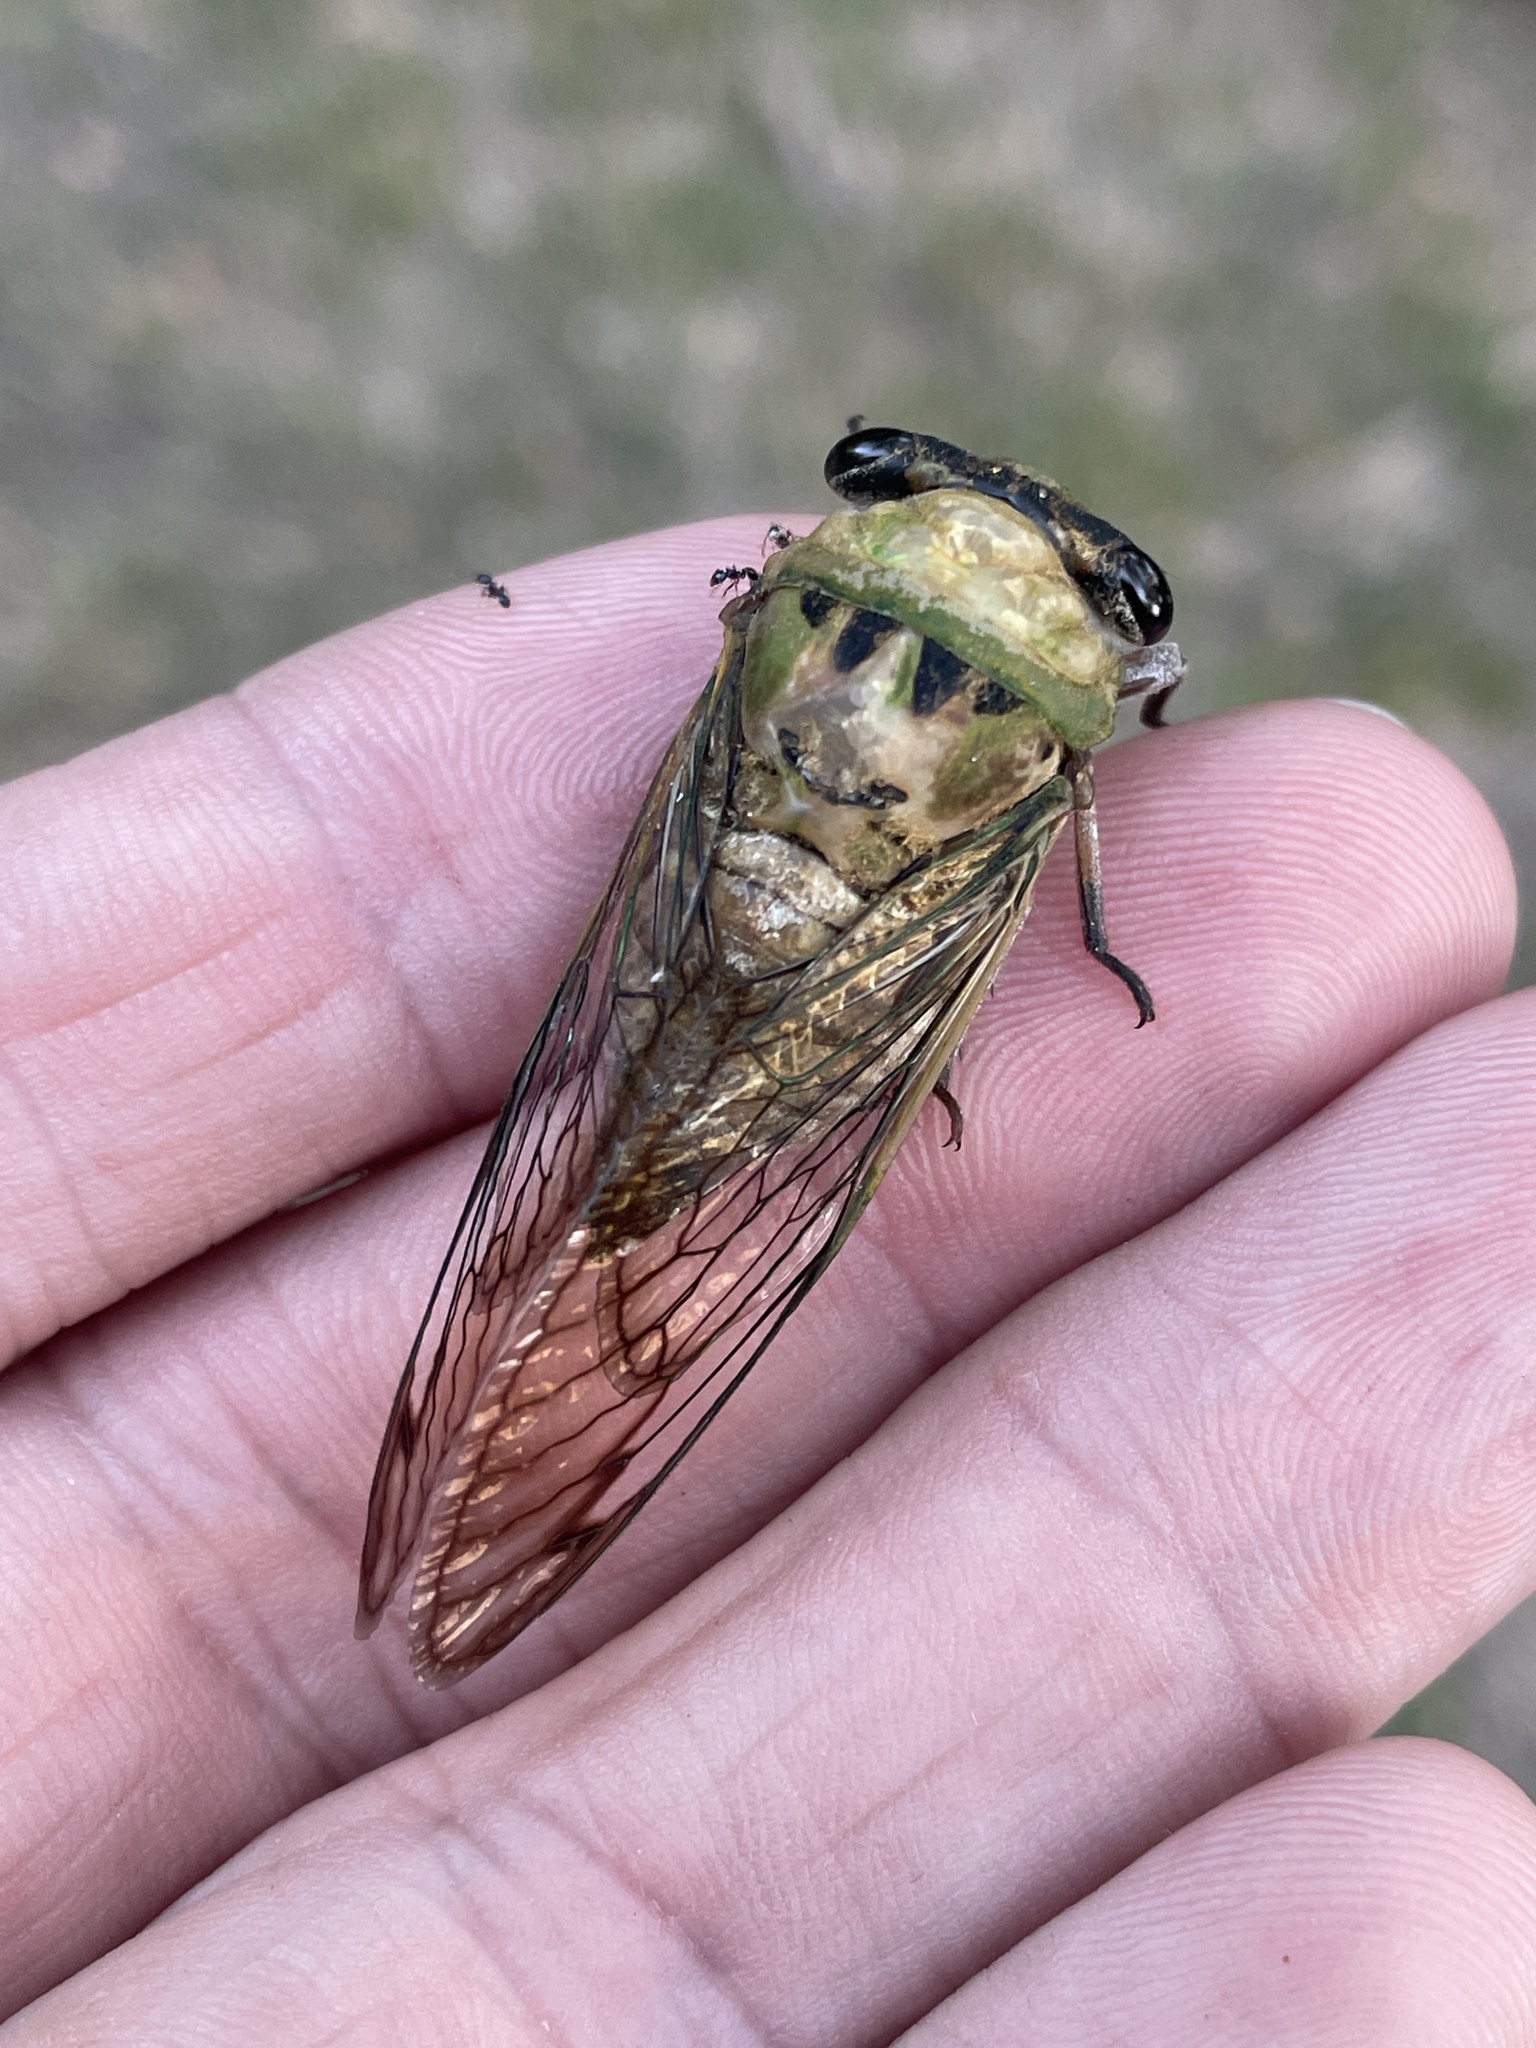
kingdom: Animalia
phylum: Arthropoda
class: Insecta
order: Hemiptera
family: Cicadidae
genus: Neotibicen
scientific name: Neotibicen superbus
